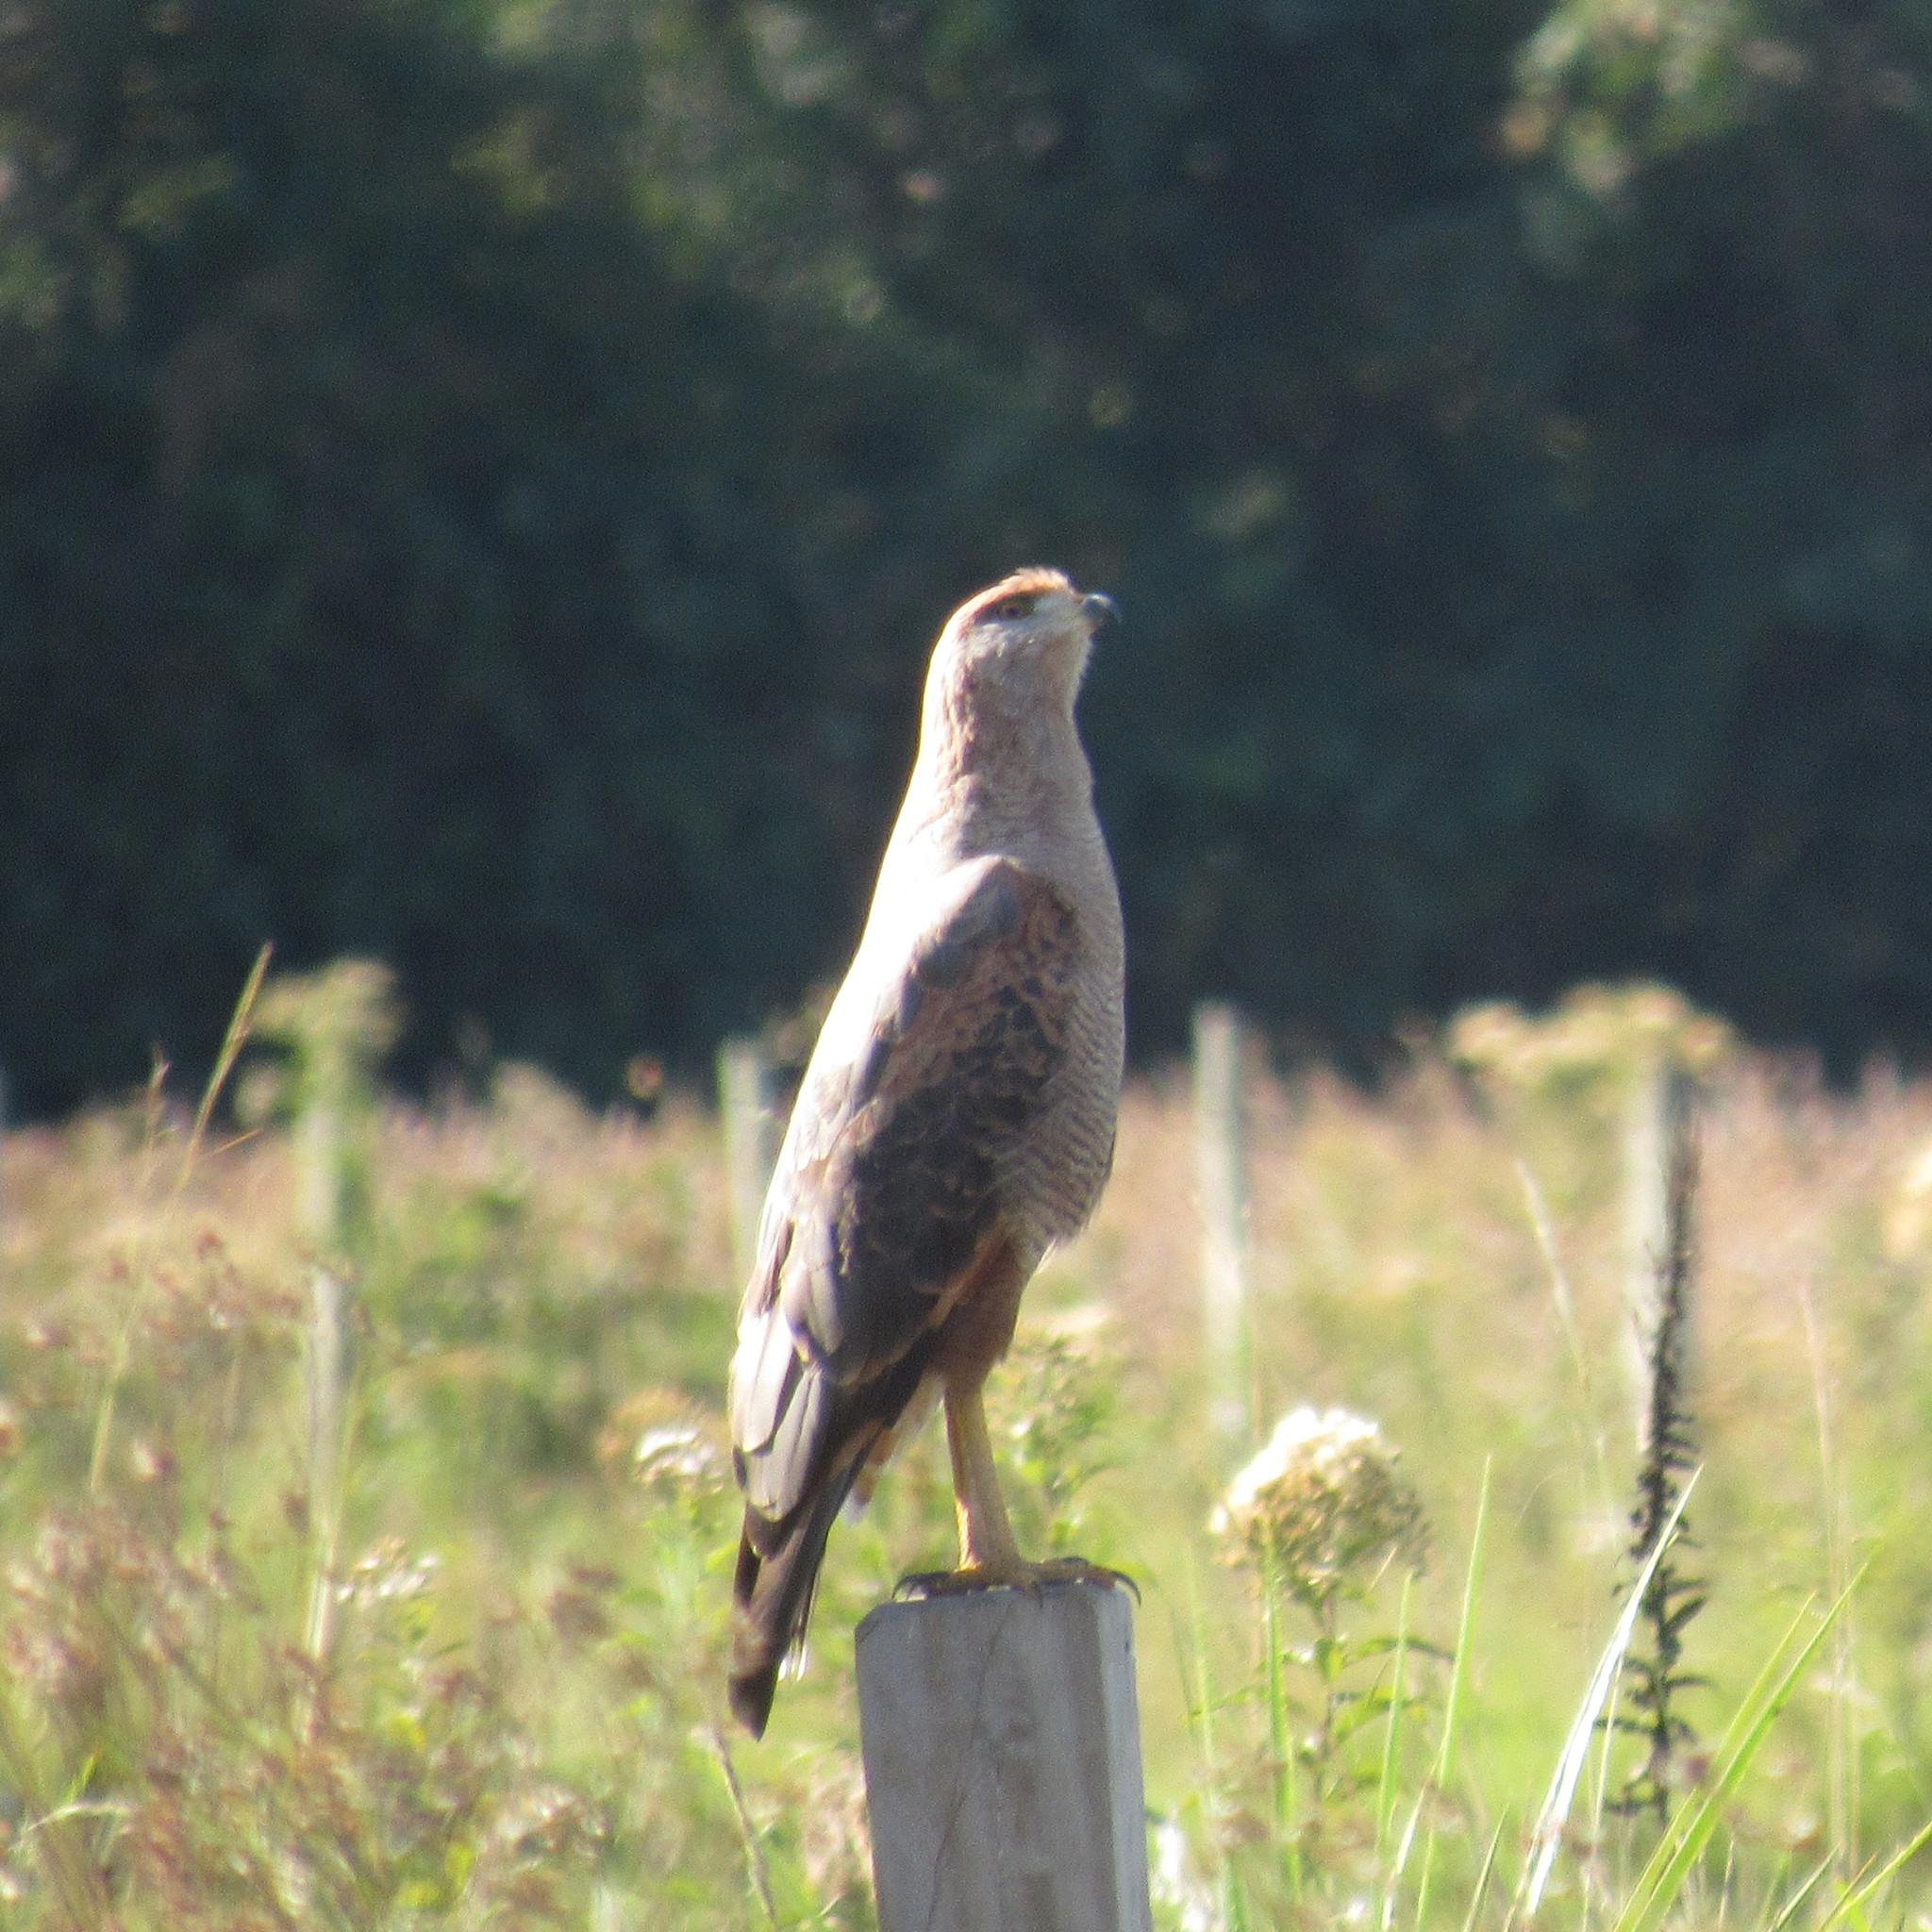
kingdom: Animalia
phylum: Chordata
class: Aves
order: Accipitriformes
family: Accipitridae
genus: Buteogallus
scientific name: Buteogallus meridionalis
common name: Savanna hawk
